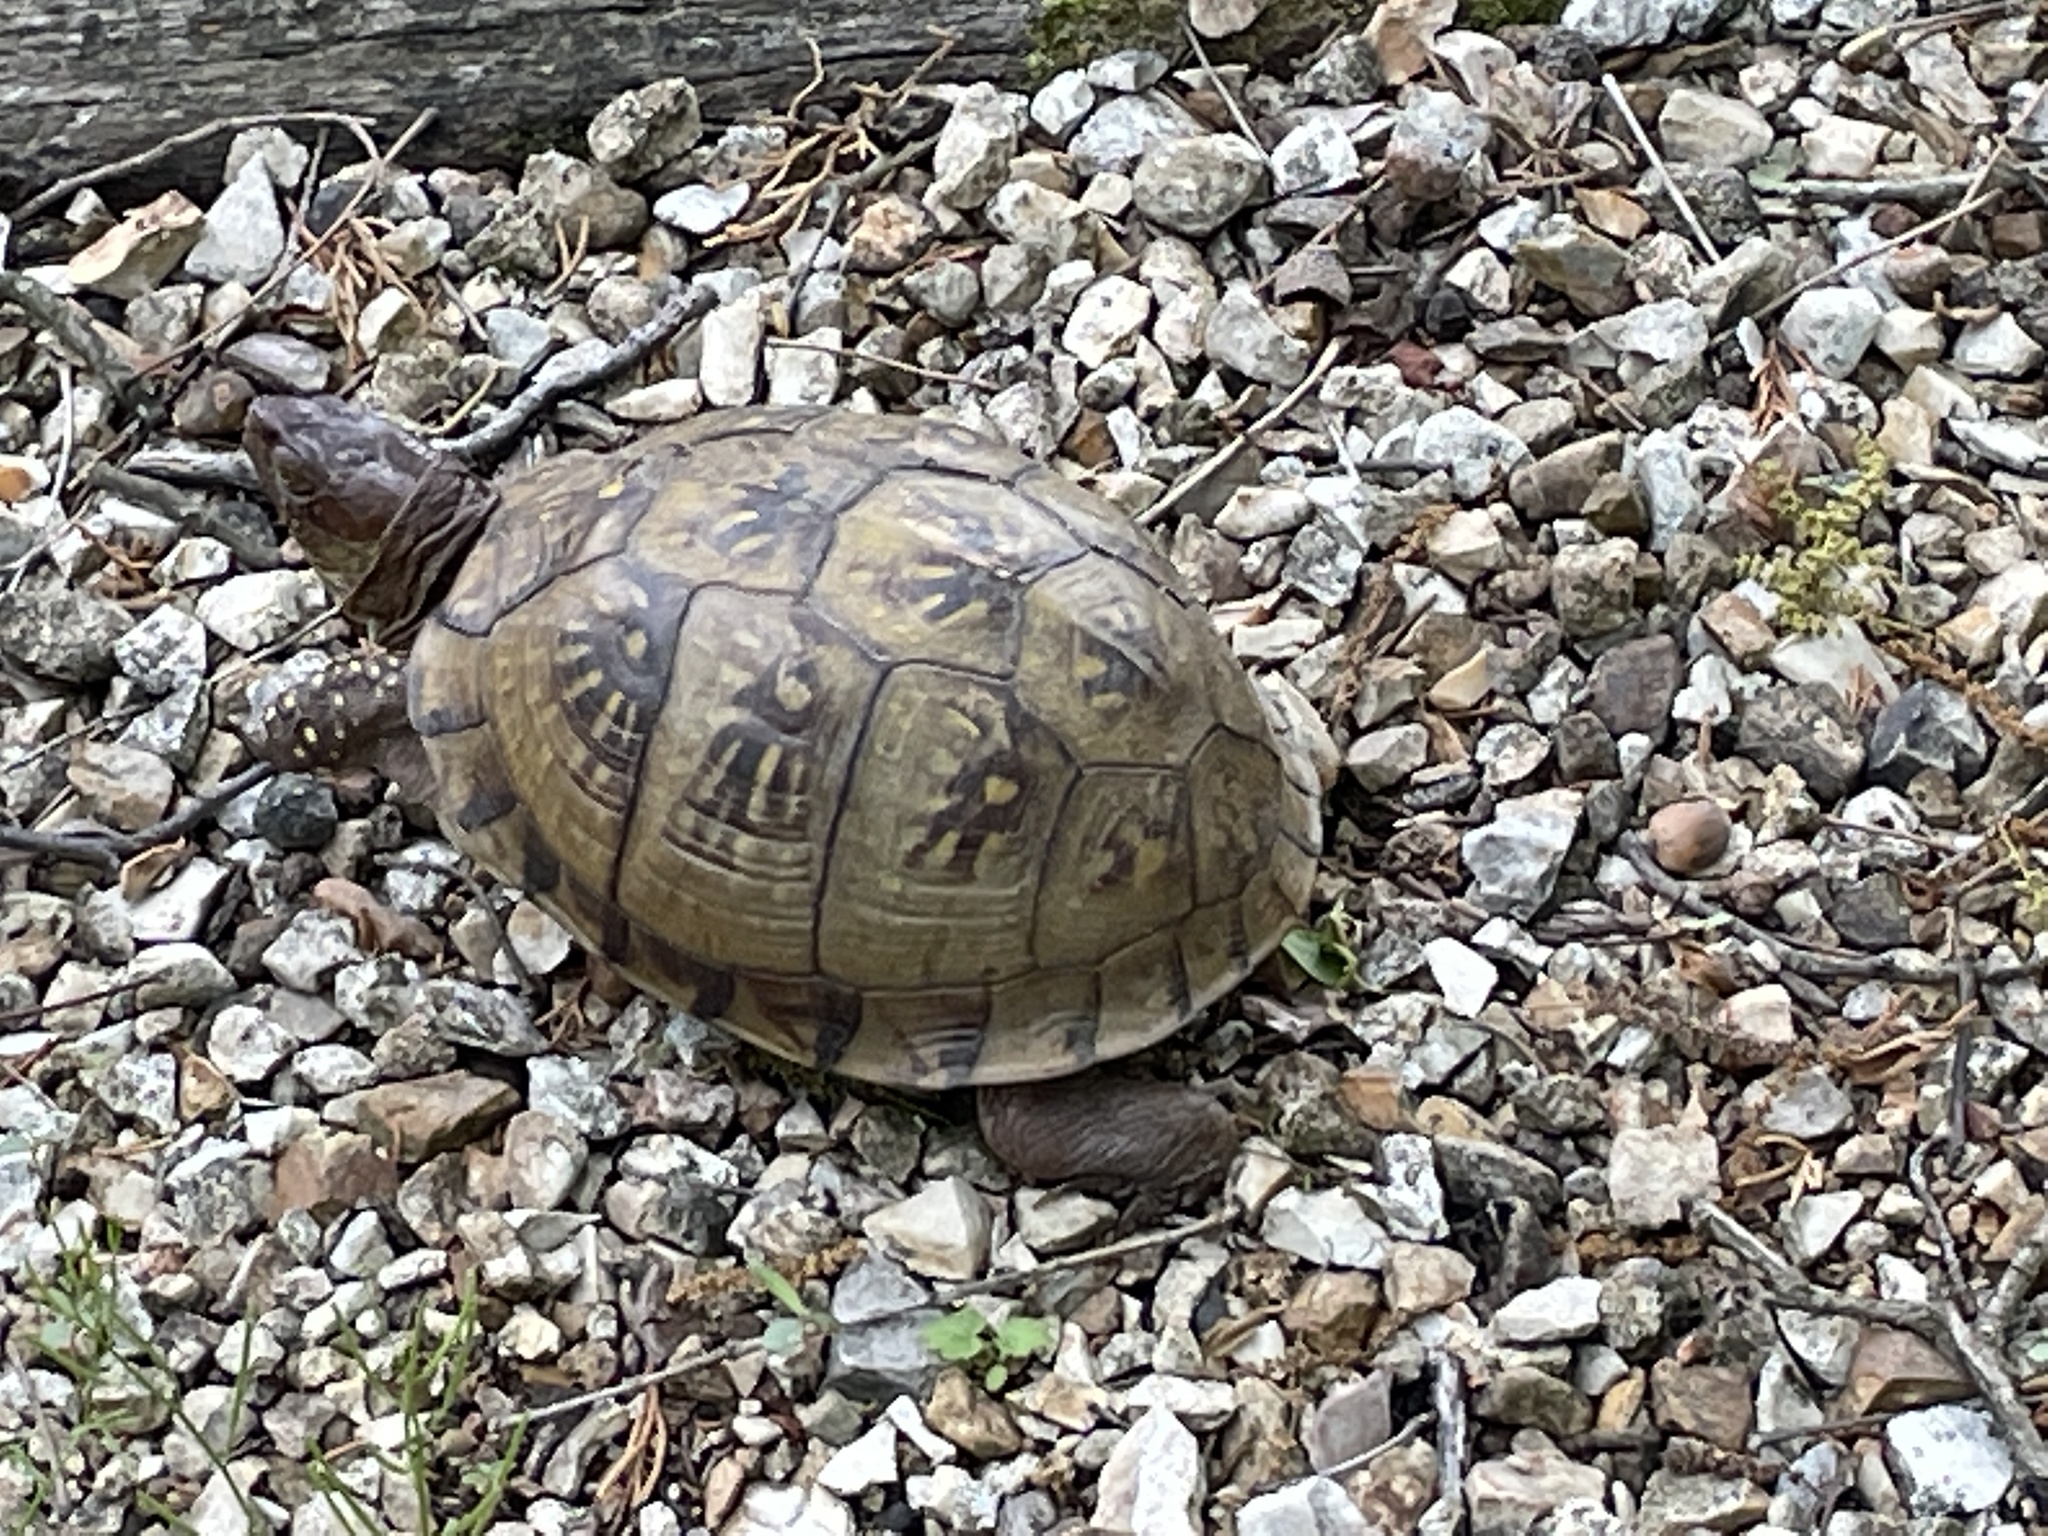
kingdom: Animalia
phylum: Chordata
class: Testudines
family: Emydidae
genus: Terrapene
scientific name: Terrapene carolina
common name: Common box turtle
